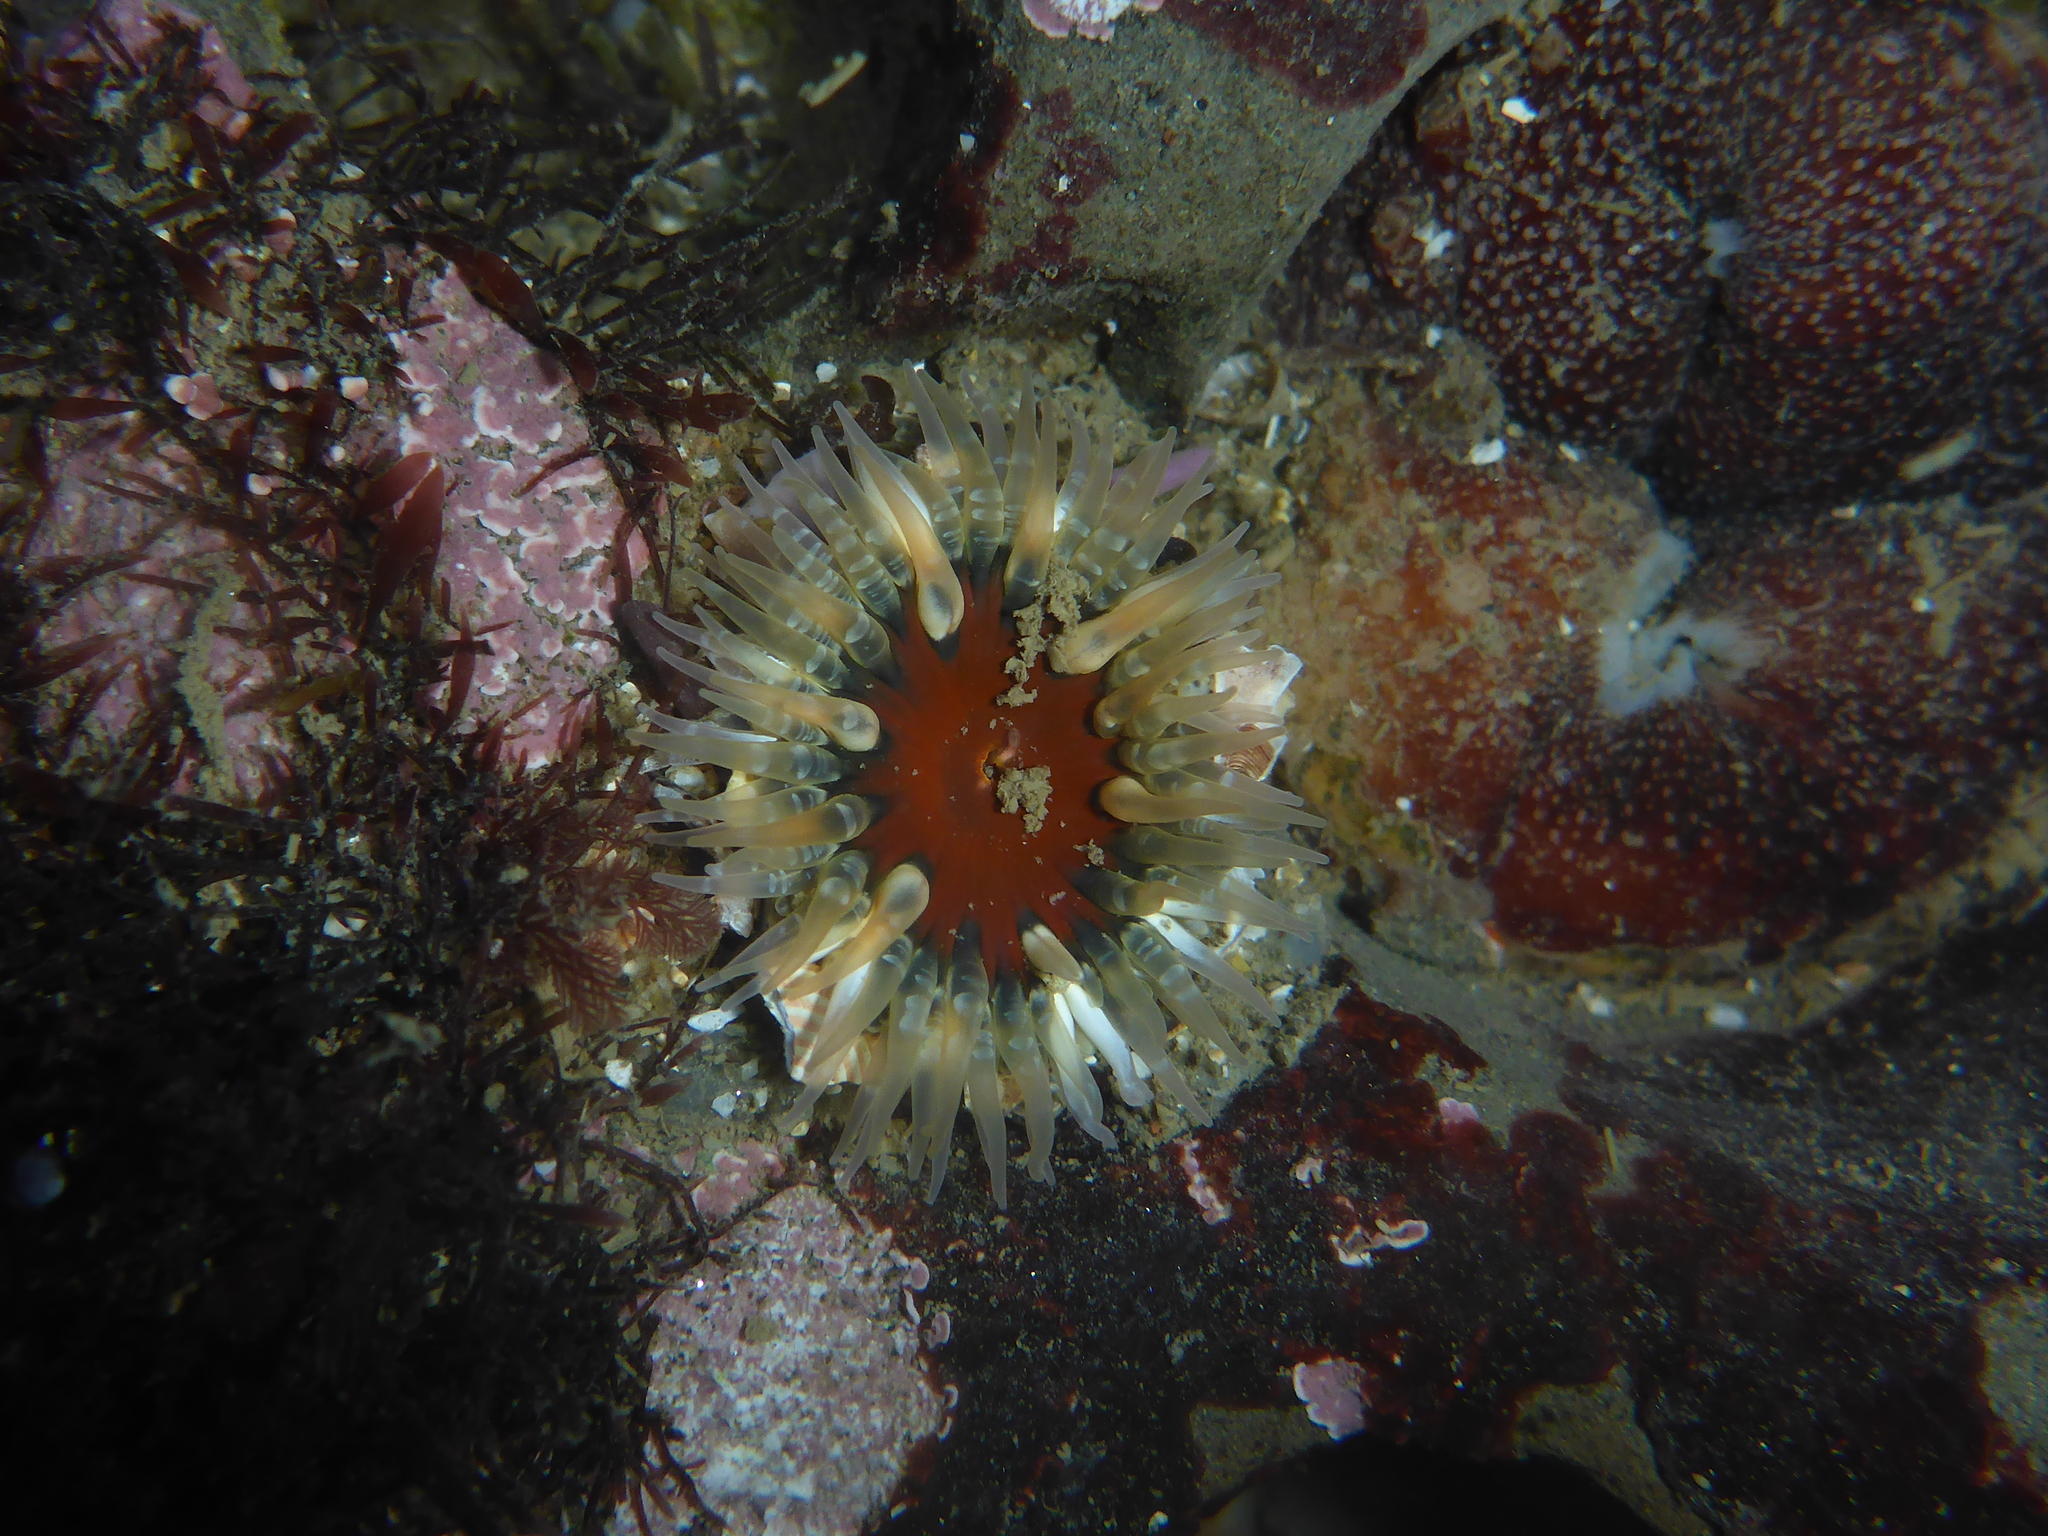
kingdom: Animalia
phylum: Cnidaria
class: Anthozoa
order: Actiniaria
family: Actiniidae
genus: Anthopleura
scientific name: Anthopleura artemisia
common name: Buried sea anemone
